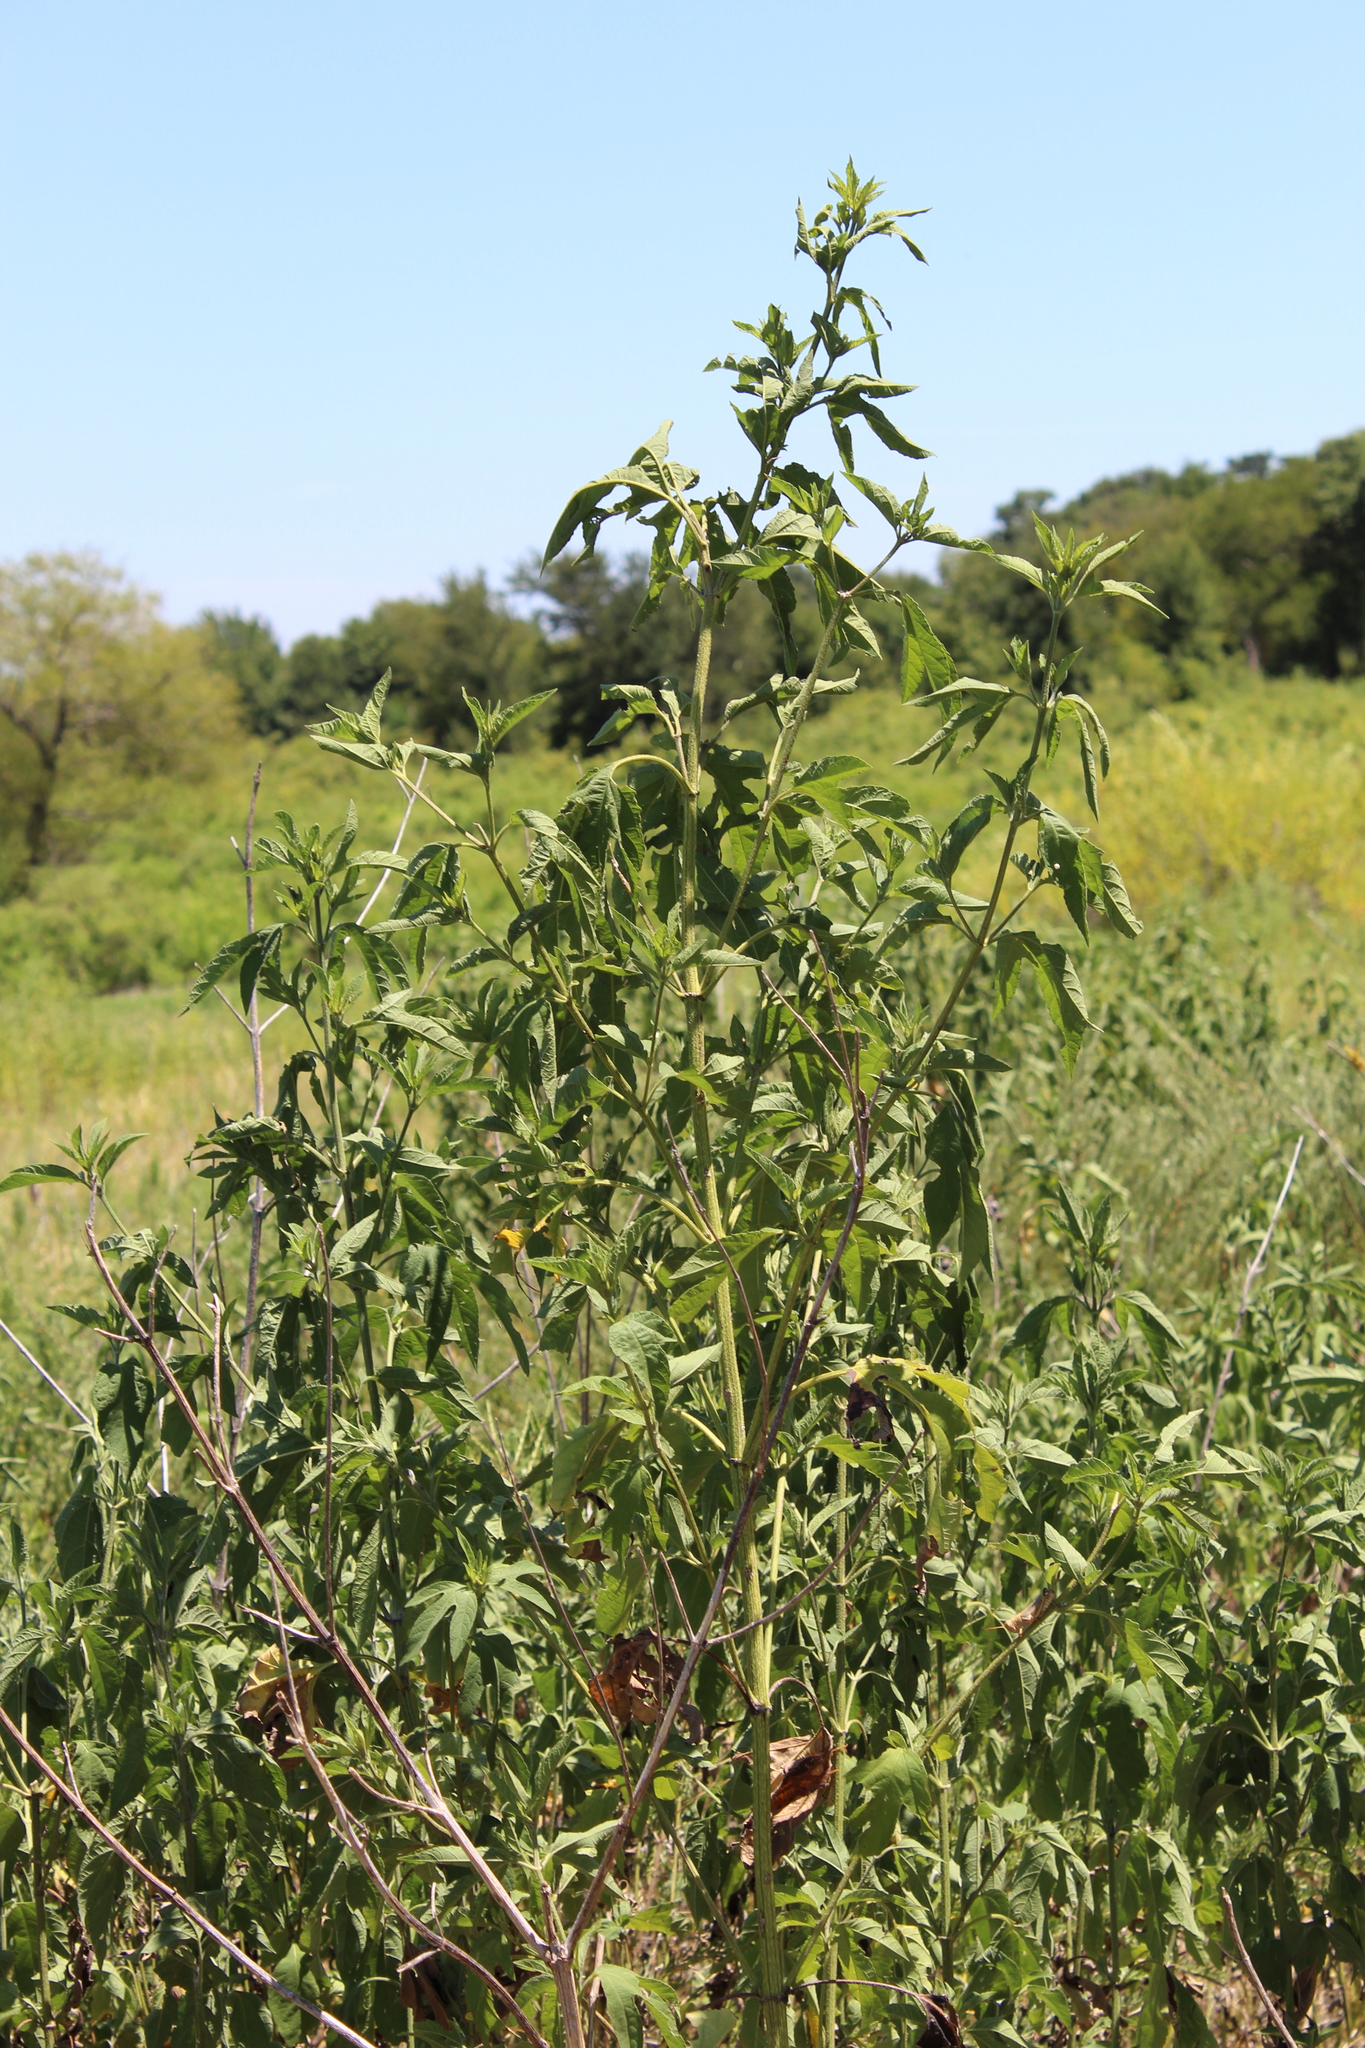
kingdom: Plantae
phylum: Tracheophyta
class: Magnoliopsida
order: Asterales
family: Asteraceae
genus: Ambrosia
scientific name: Ambrosia trifida
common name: Giant ragweed
